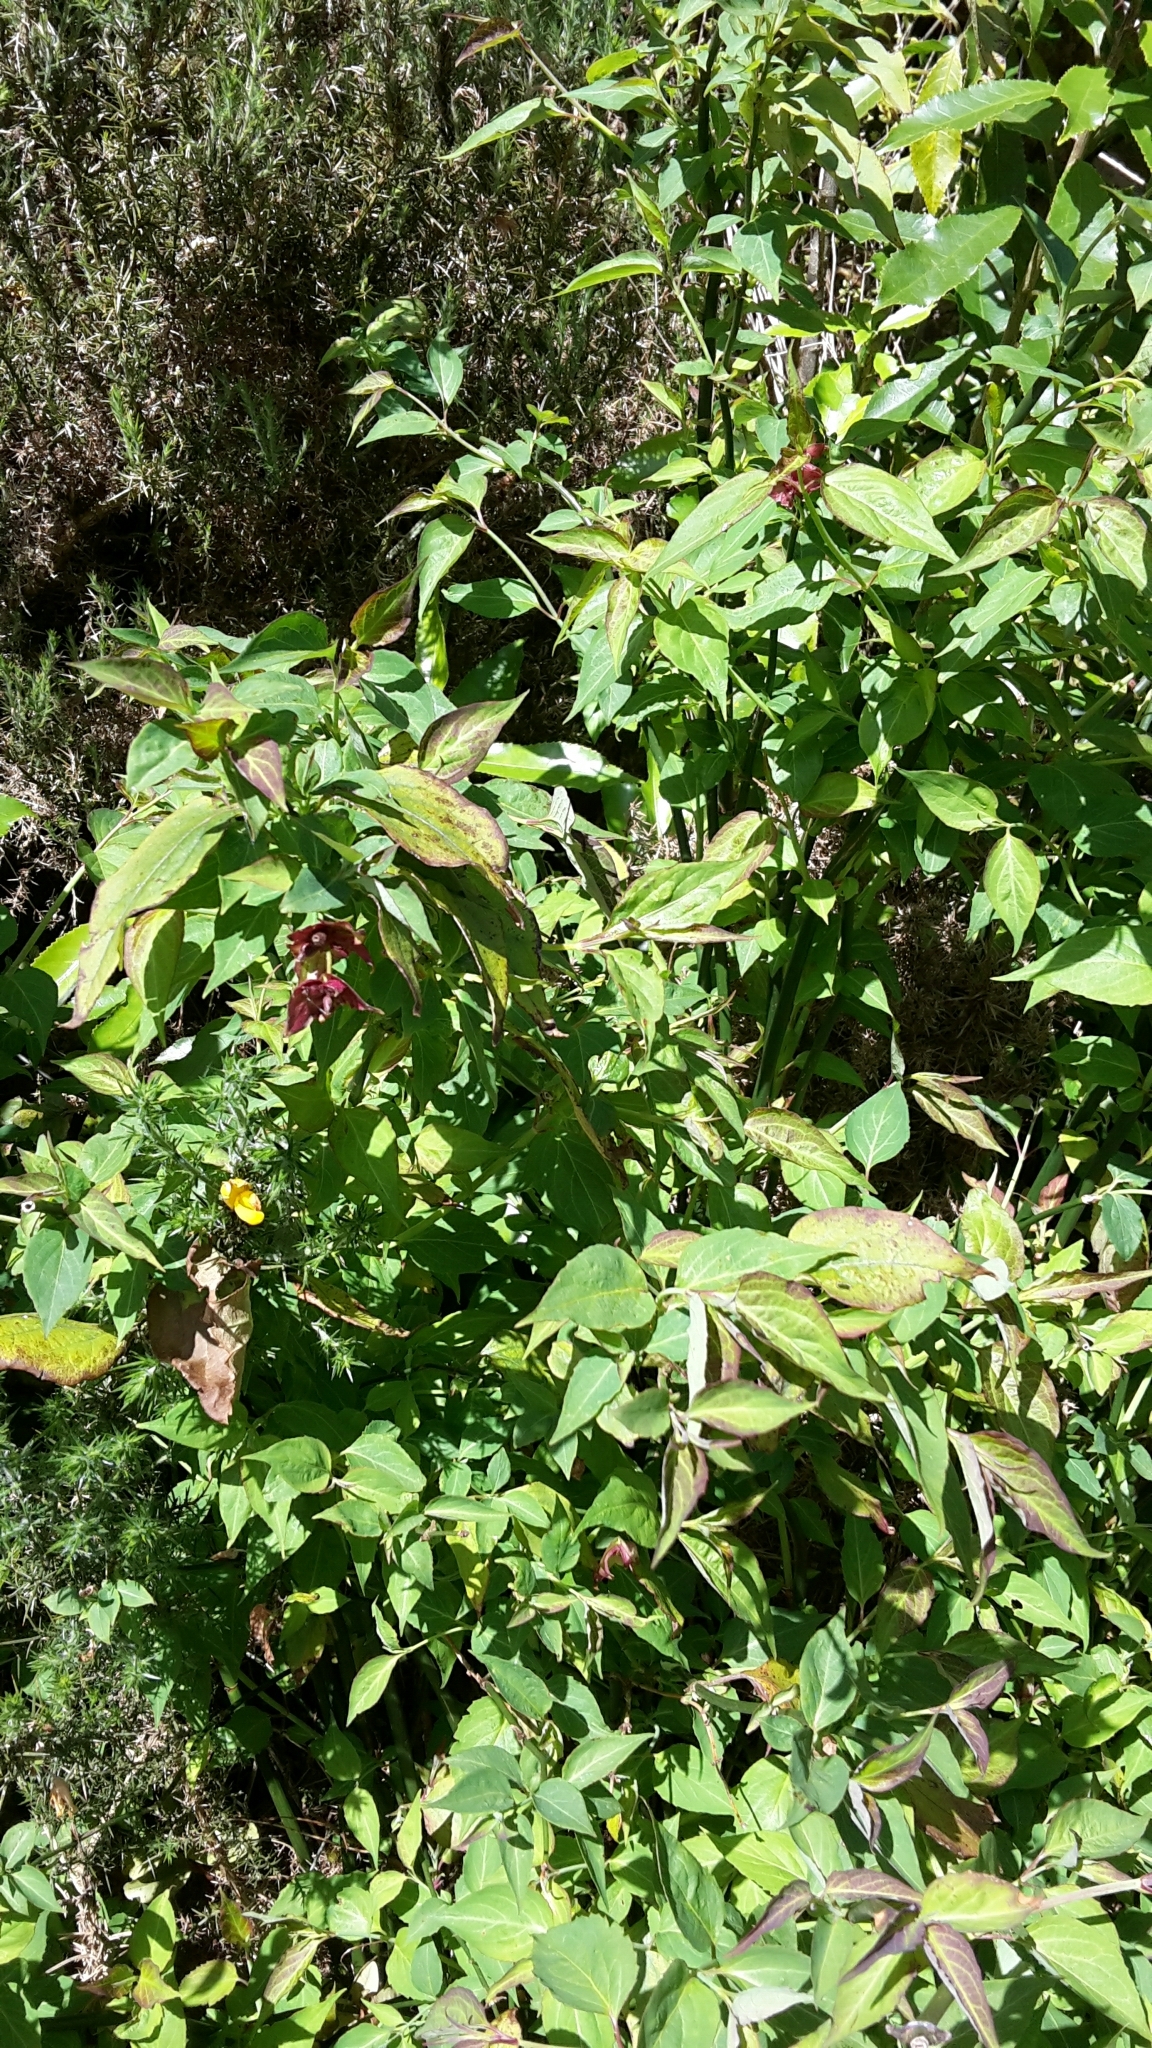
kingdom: Plantae
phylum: Tracheophyta
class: Magnoliopsida
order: Dipsacales
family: Caprifoliaceae
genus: Leycesteria
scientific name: Leycesteria formosa
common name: Himalayan honeysuckle
